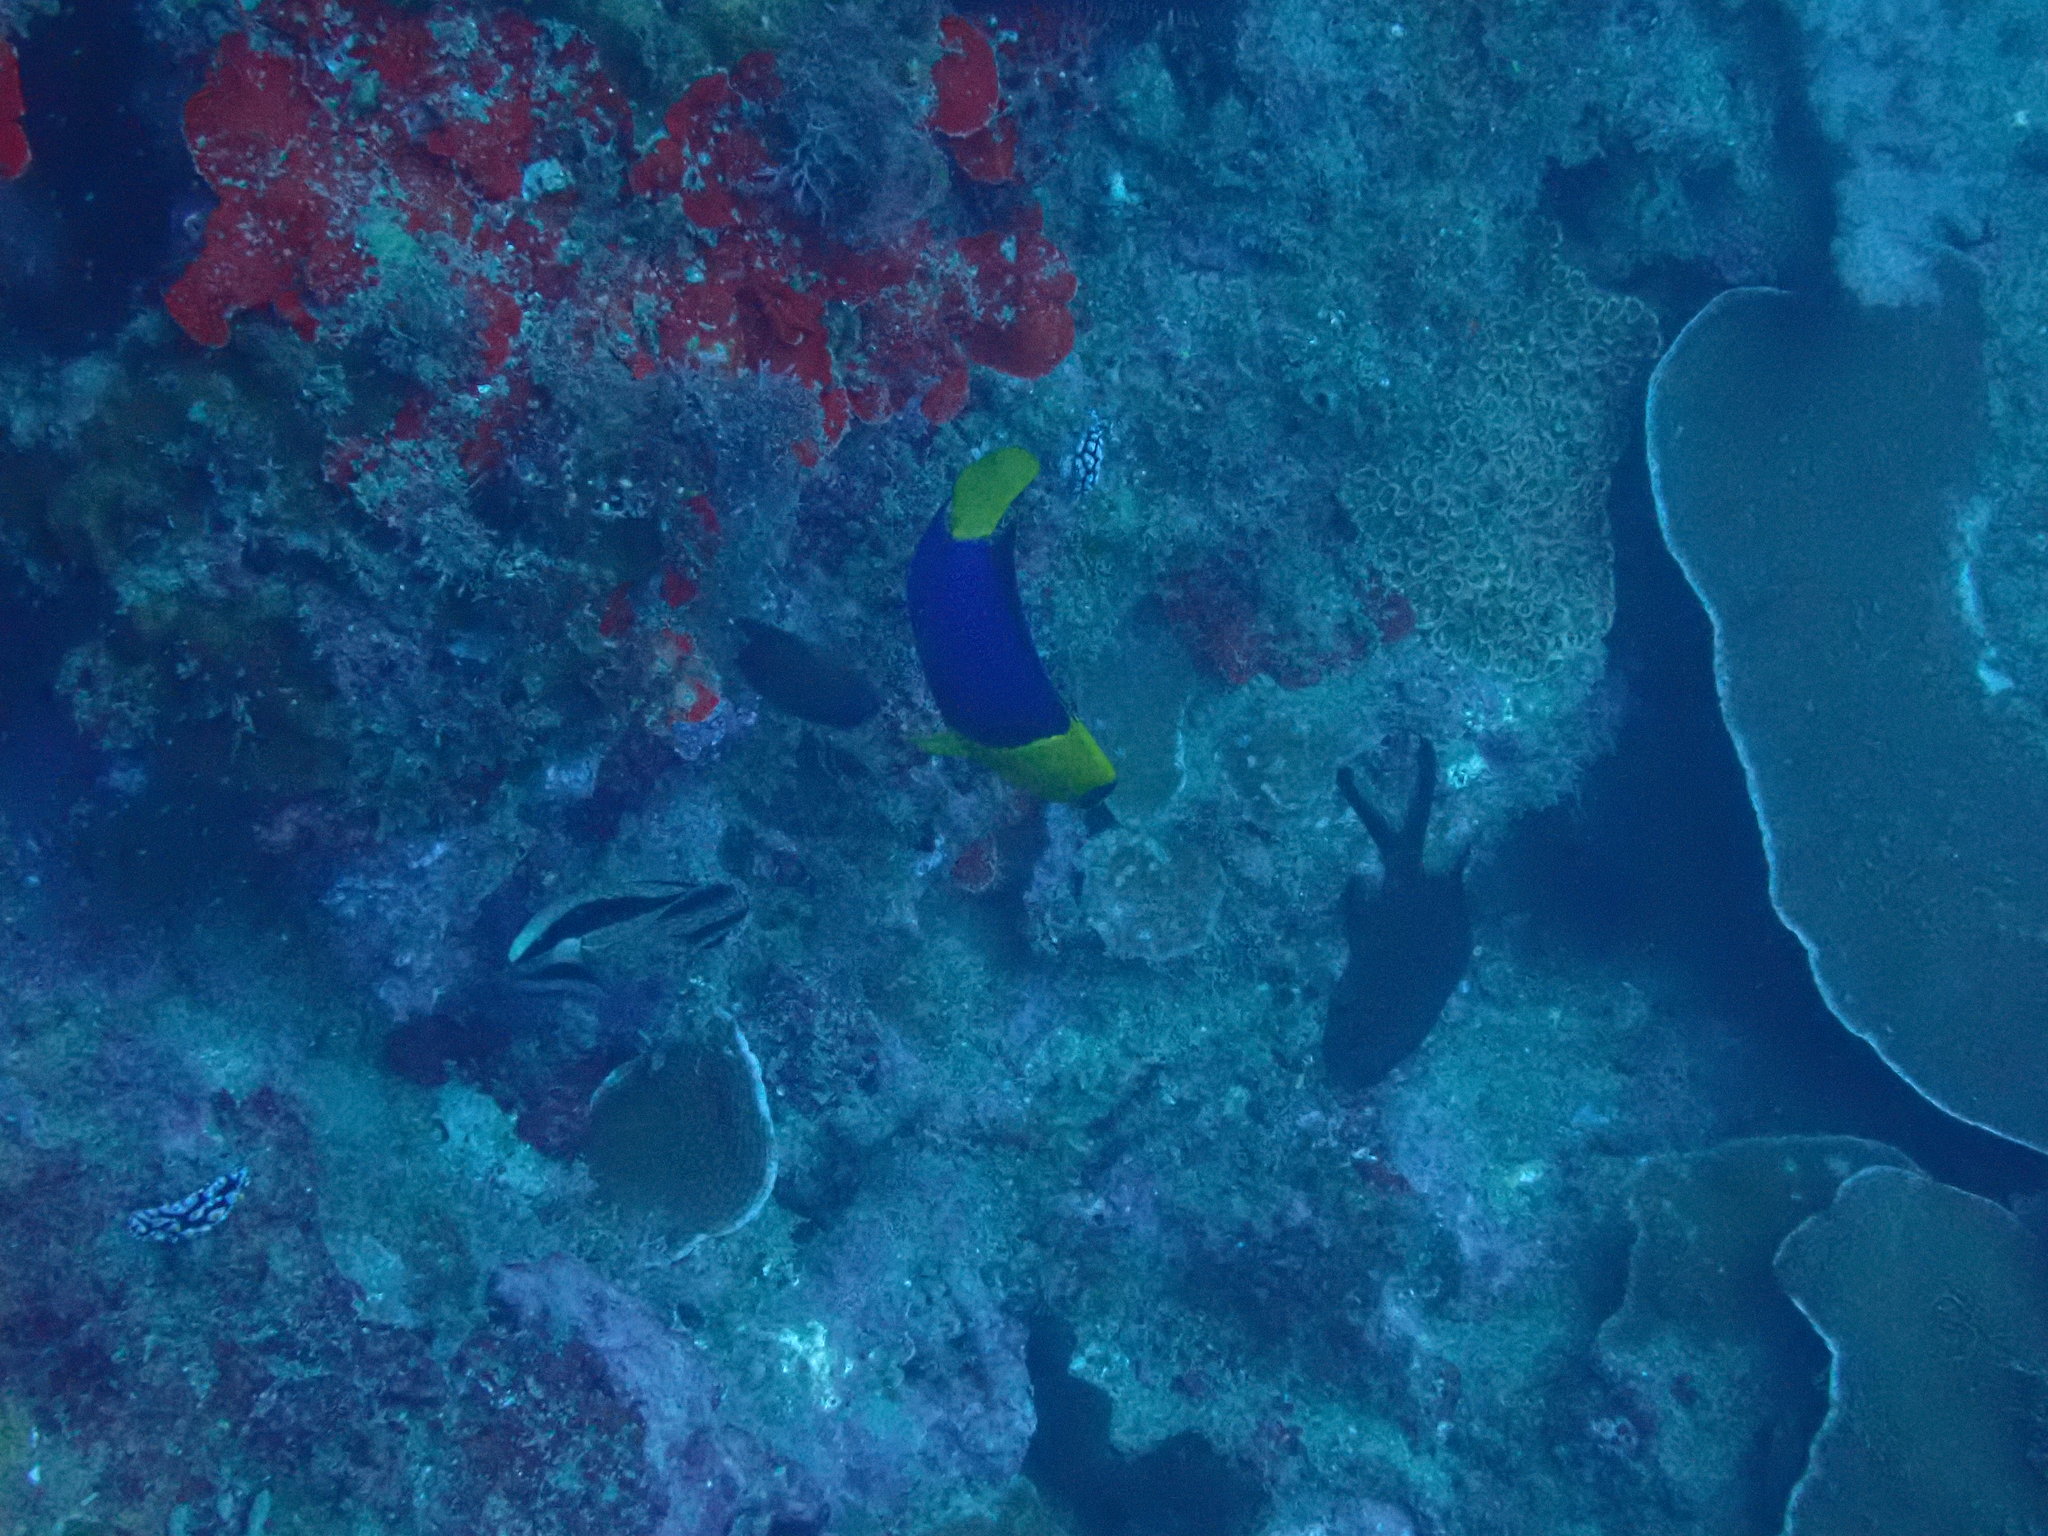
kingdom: Animalia
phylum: Chordata
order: Perciformes
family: Pomacanthidae
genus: Centropyge
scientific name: Centropyge bicolor
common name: Bicolor angelfish
